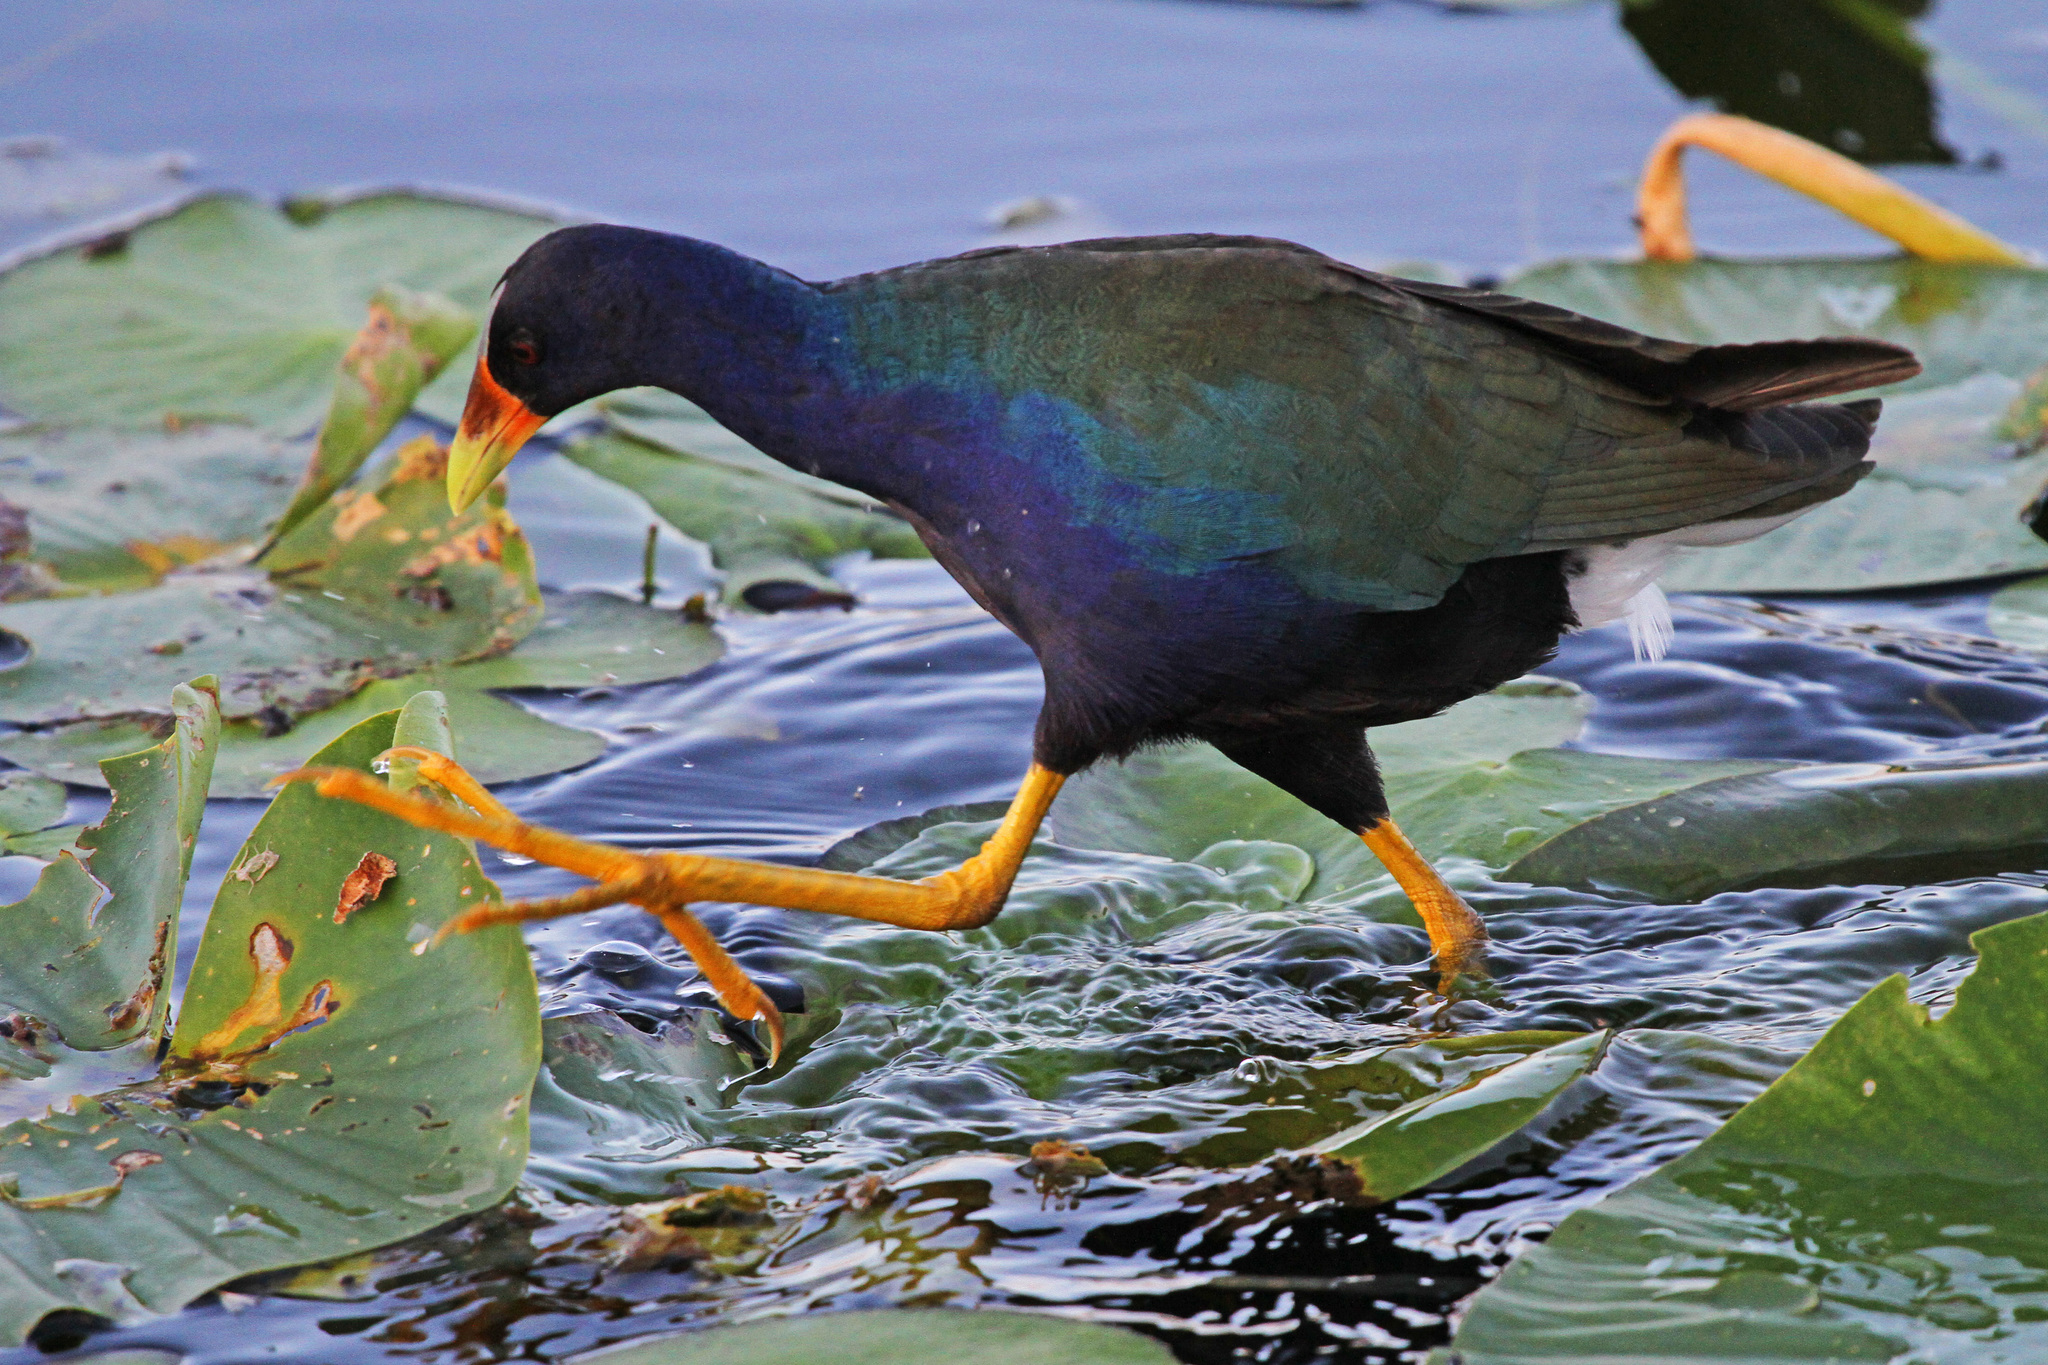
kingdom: Animalia
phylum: Chordata
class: Aves
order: Gruiformes
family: Rallidae
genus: Porphyrio
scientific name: Porphyrio martinica
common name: Purple gallinule
